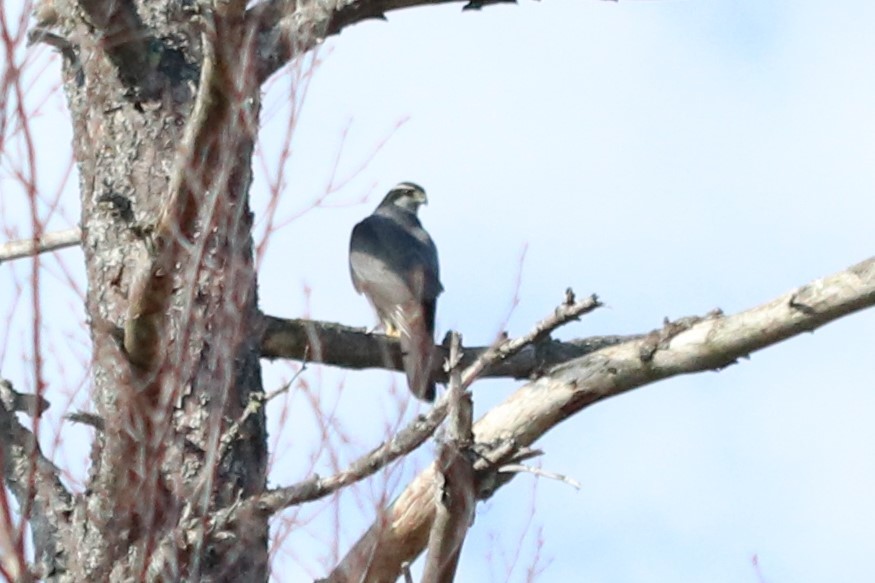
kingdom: Animalia
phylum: Chordata
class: Aves
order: Accipitriformes
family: Accipitridae
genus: Accipiter
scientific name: Accipiter gentilis
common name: Northern goshawk
